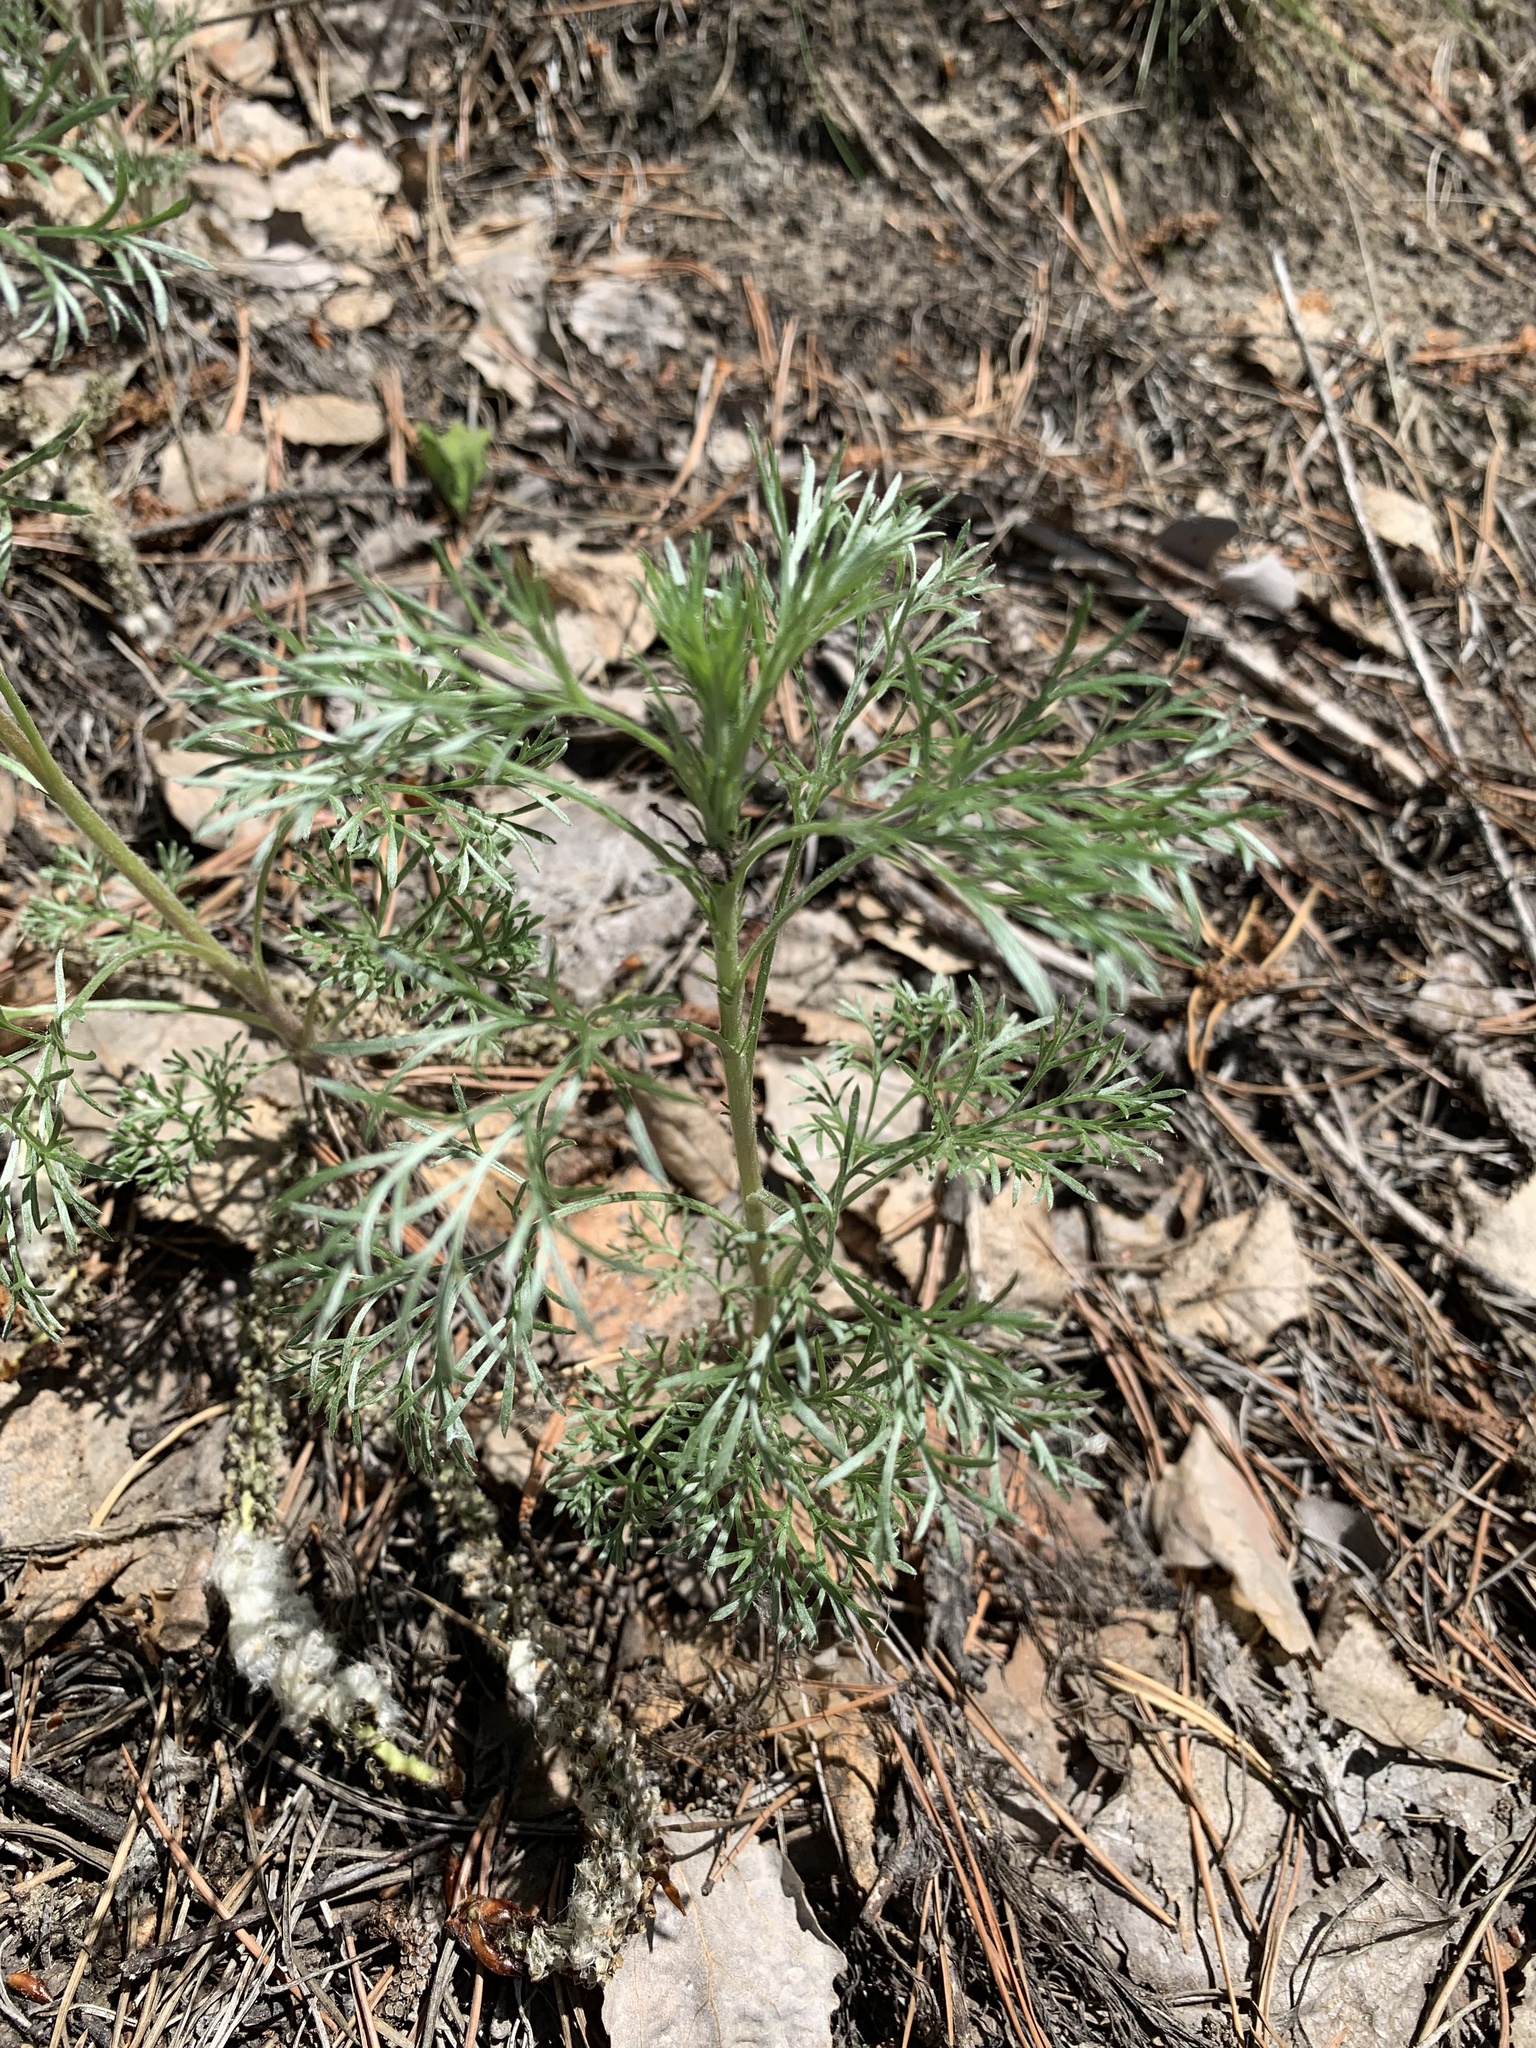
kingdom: Plantae
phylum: Tracheophyta
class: Magnoliopsida
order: Asterales
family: Asteraceae
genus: Artemisia
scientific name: Artemisia sericea
